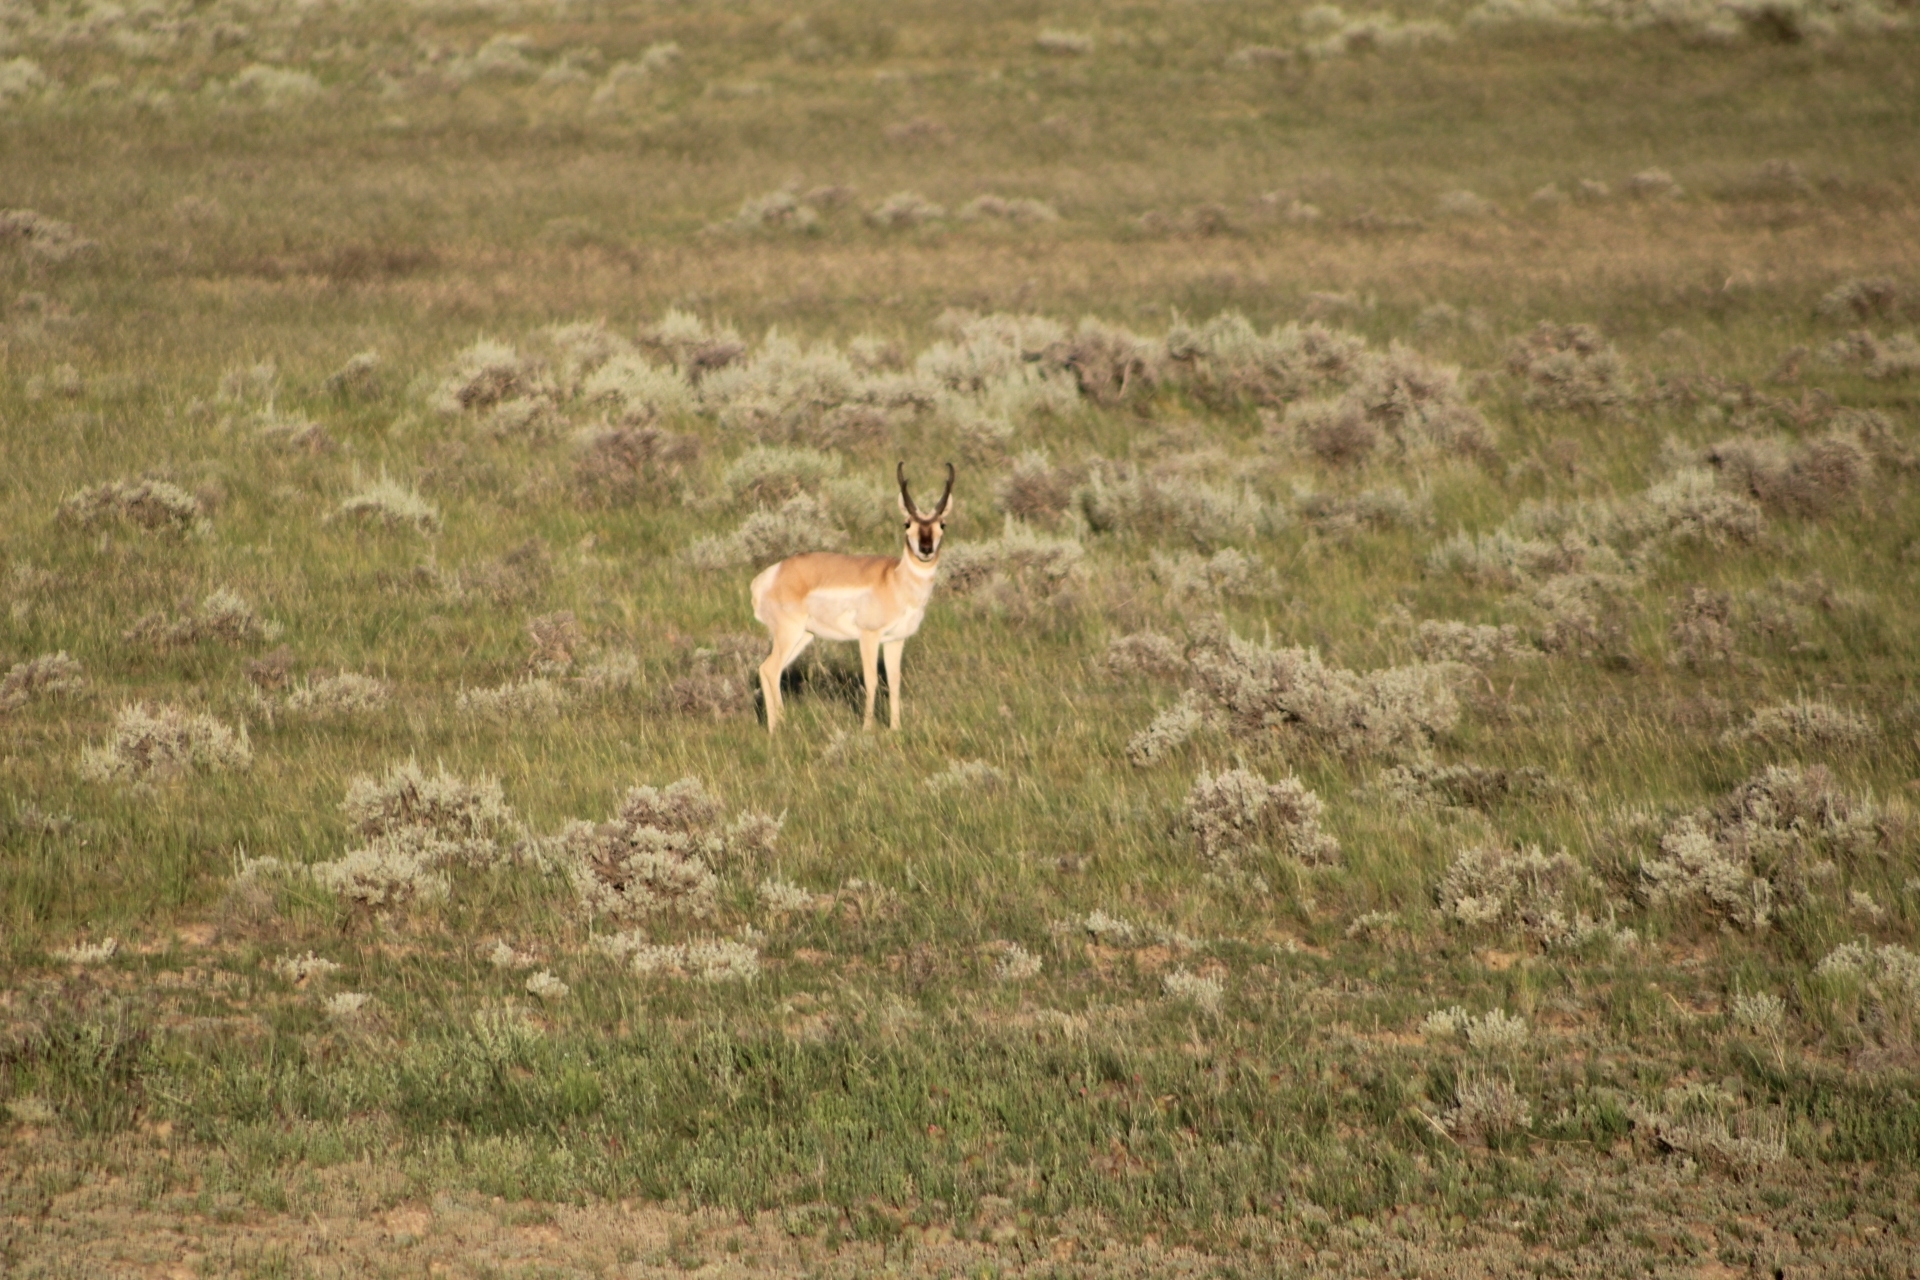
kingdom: Animalia
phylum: Chordata
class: Mammalia
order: Artiodactyla
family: Antilocapridae
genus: Antilocapra
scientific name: Antilocapra americana
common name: Pronghorn
